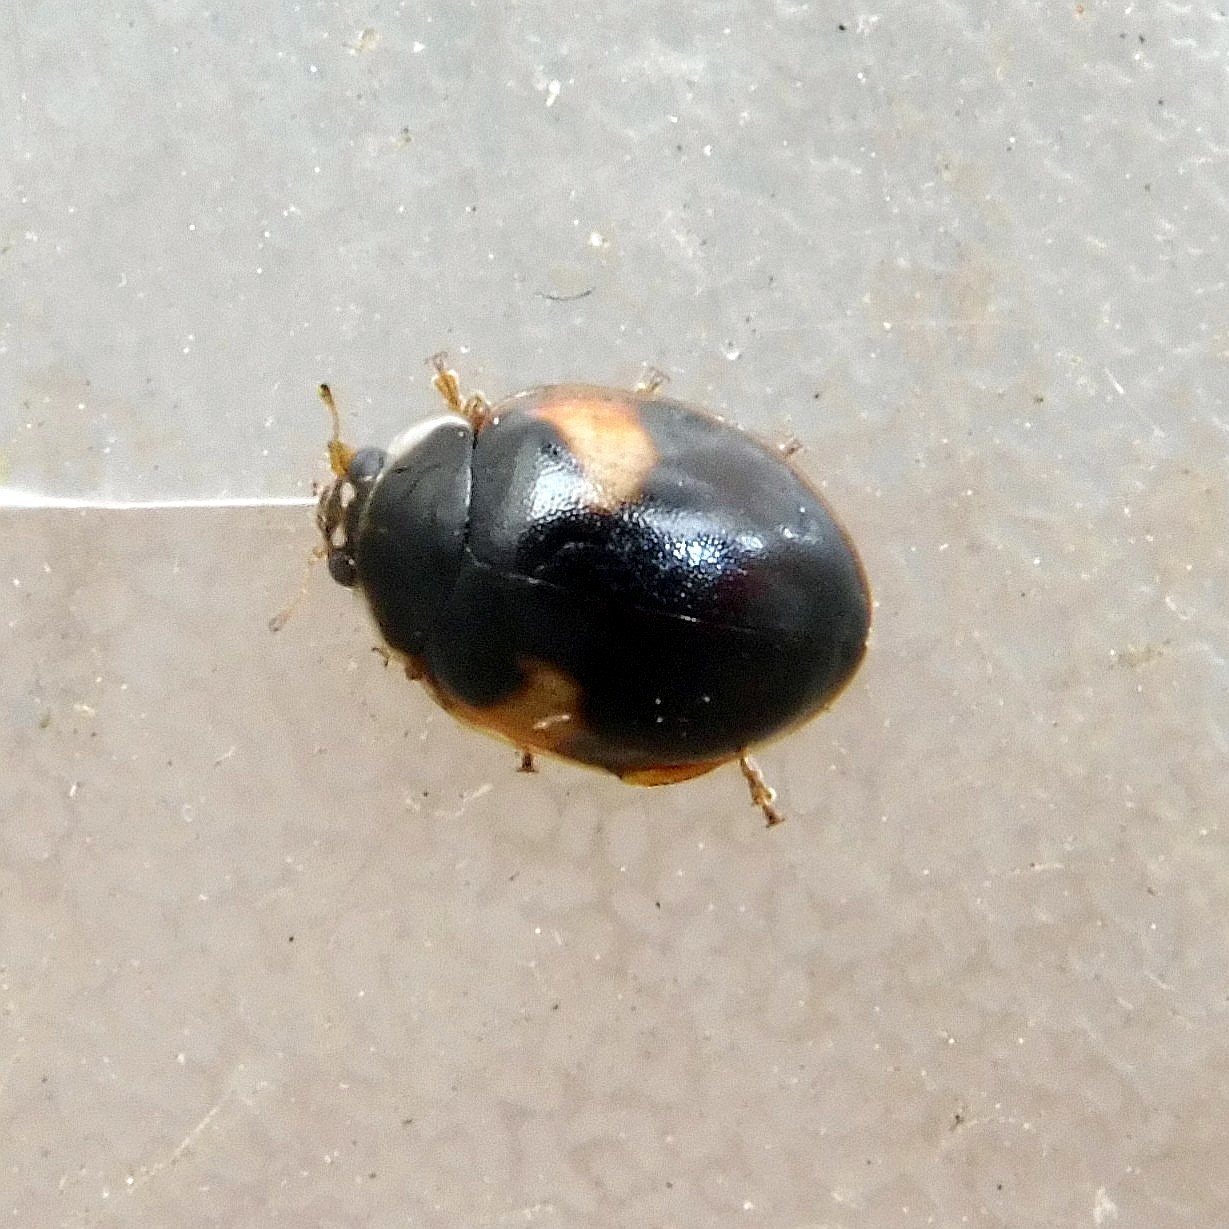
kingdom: Animalia
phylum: Arthropoda
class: Insecta
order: Coleoptera
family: Coccinellidae
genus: Adalia
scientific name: Adalia decempunctata
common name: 10-spot ladybird
